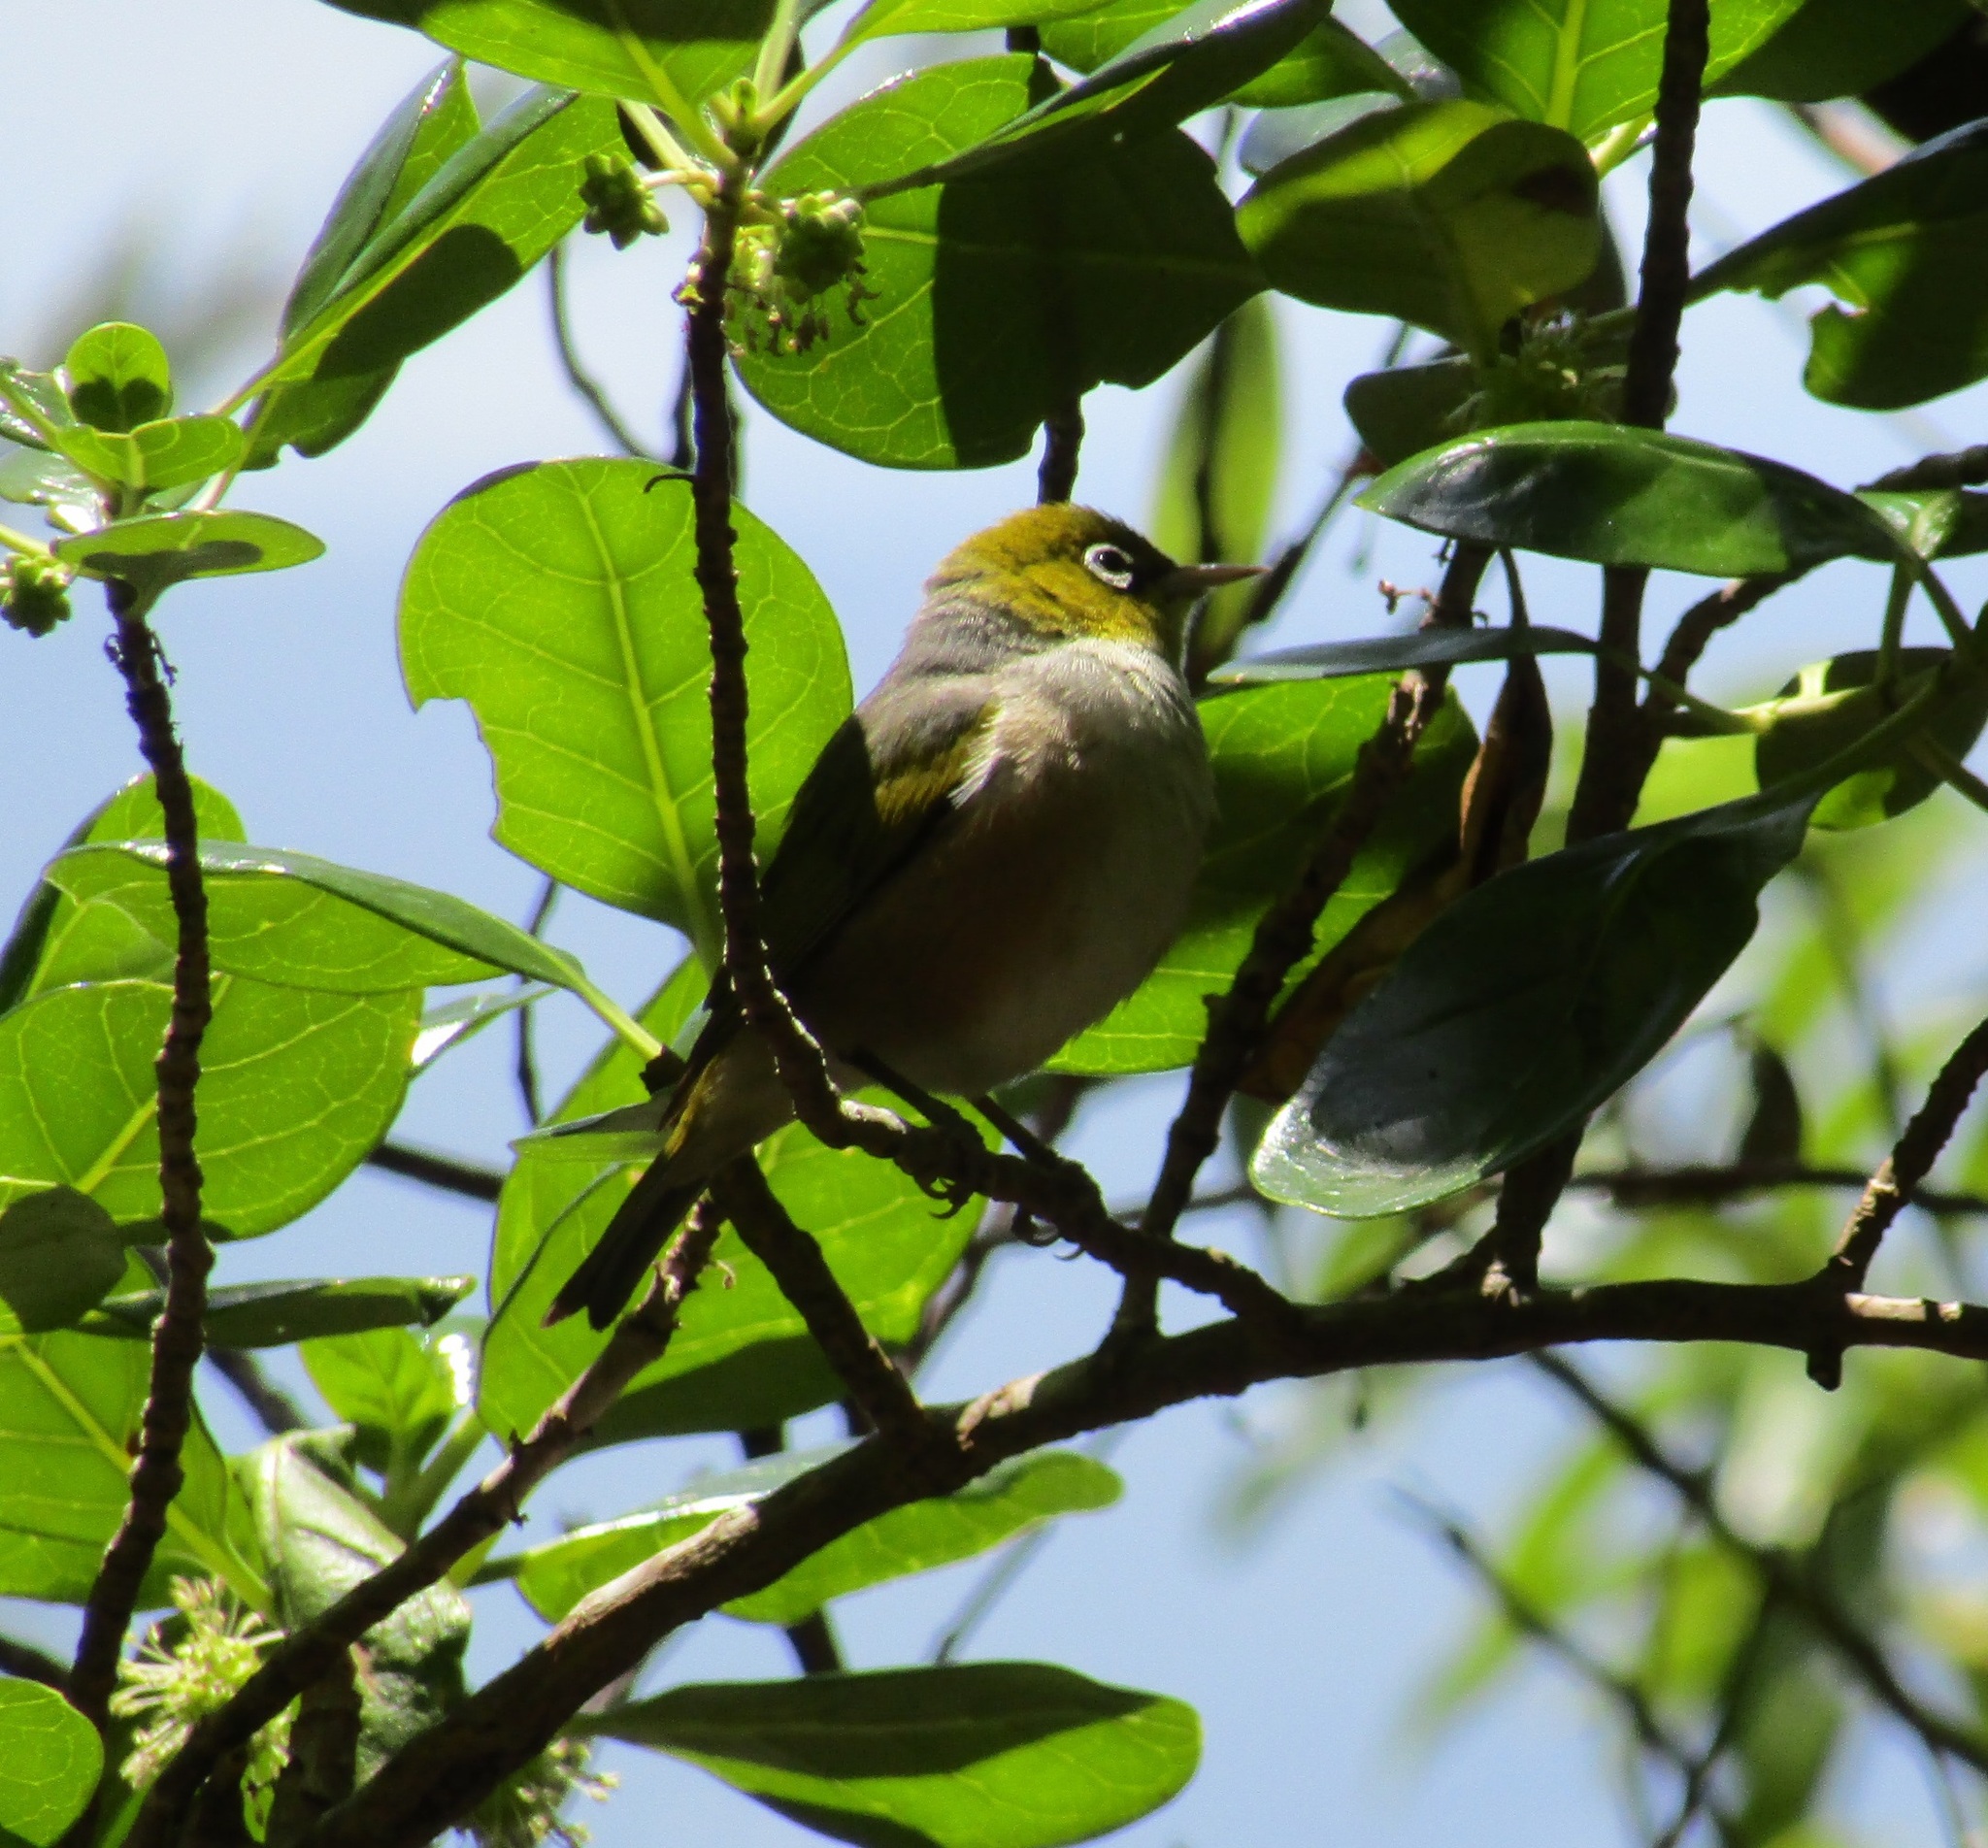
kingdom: Animalia
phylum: Chordata
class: Aves
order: Passeriformes
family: Zosteropidae
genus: Zosterops
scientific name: Zosterops lateralis
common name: Silvereye
